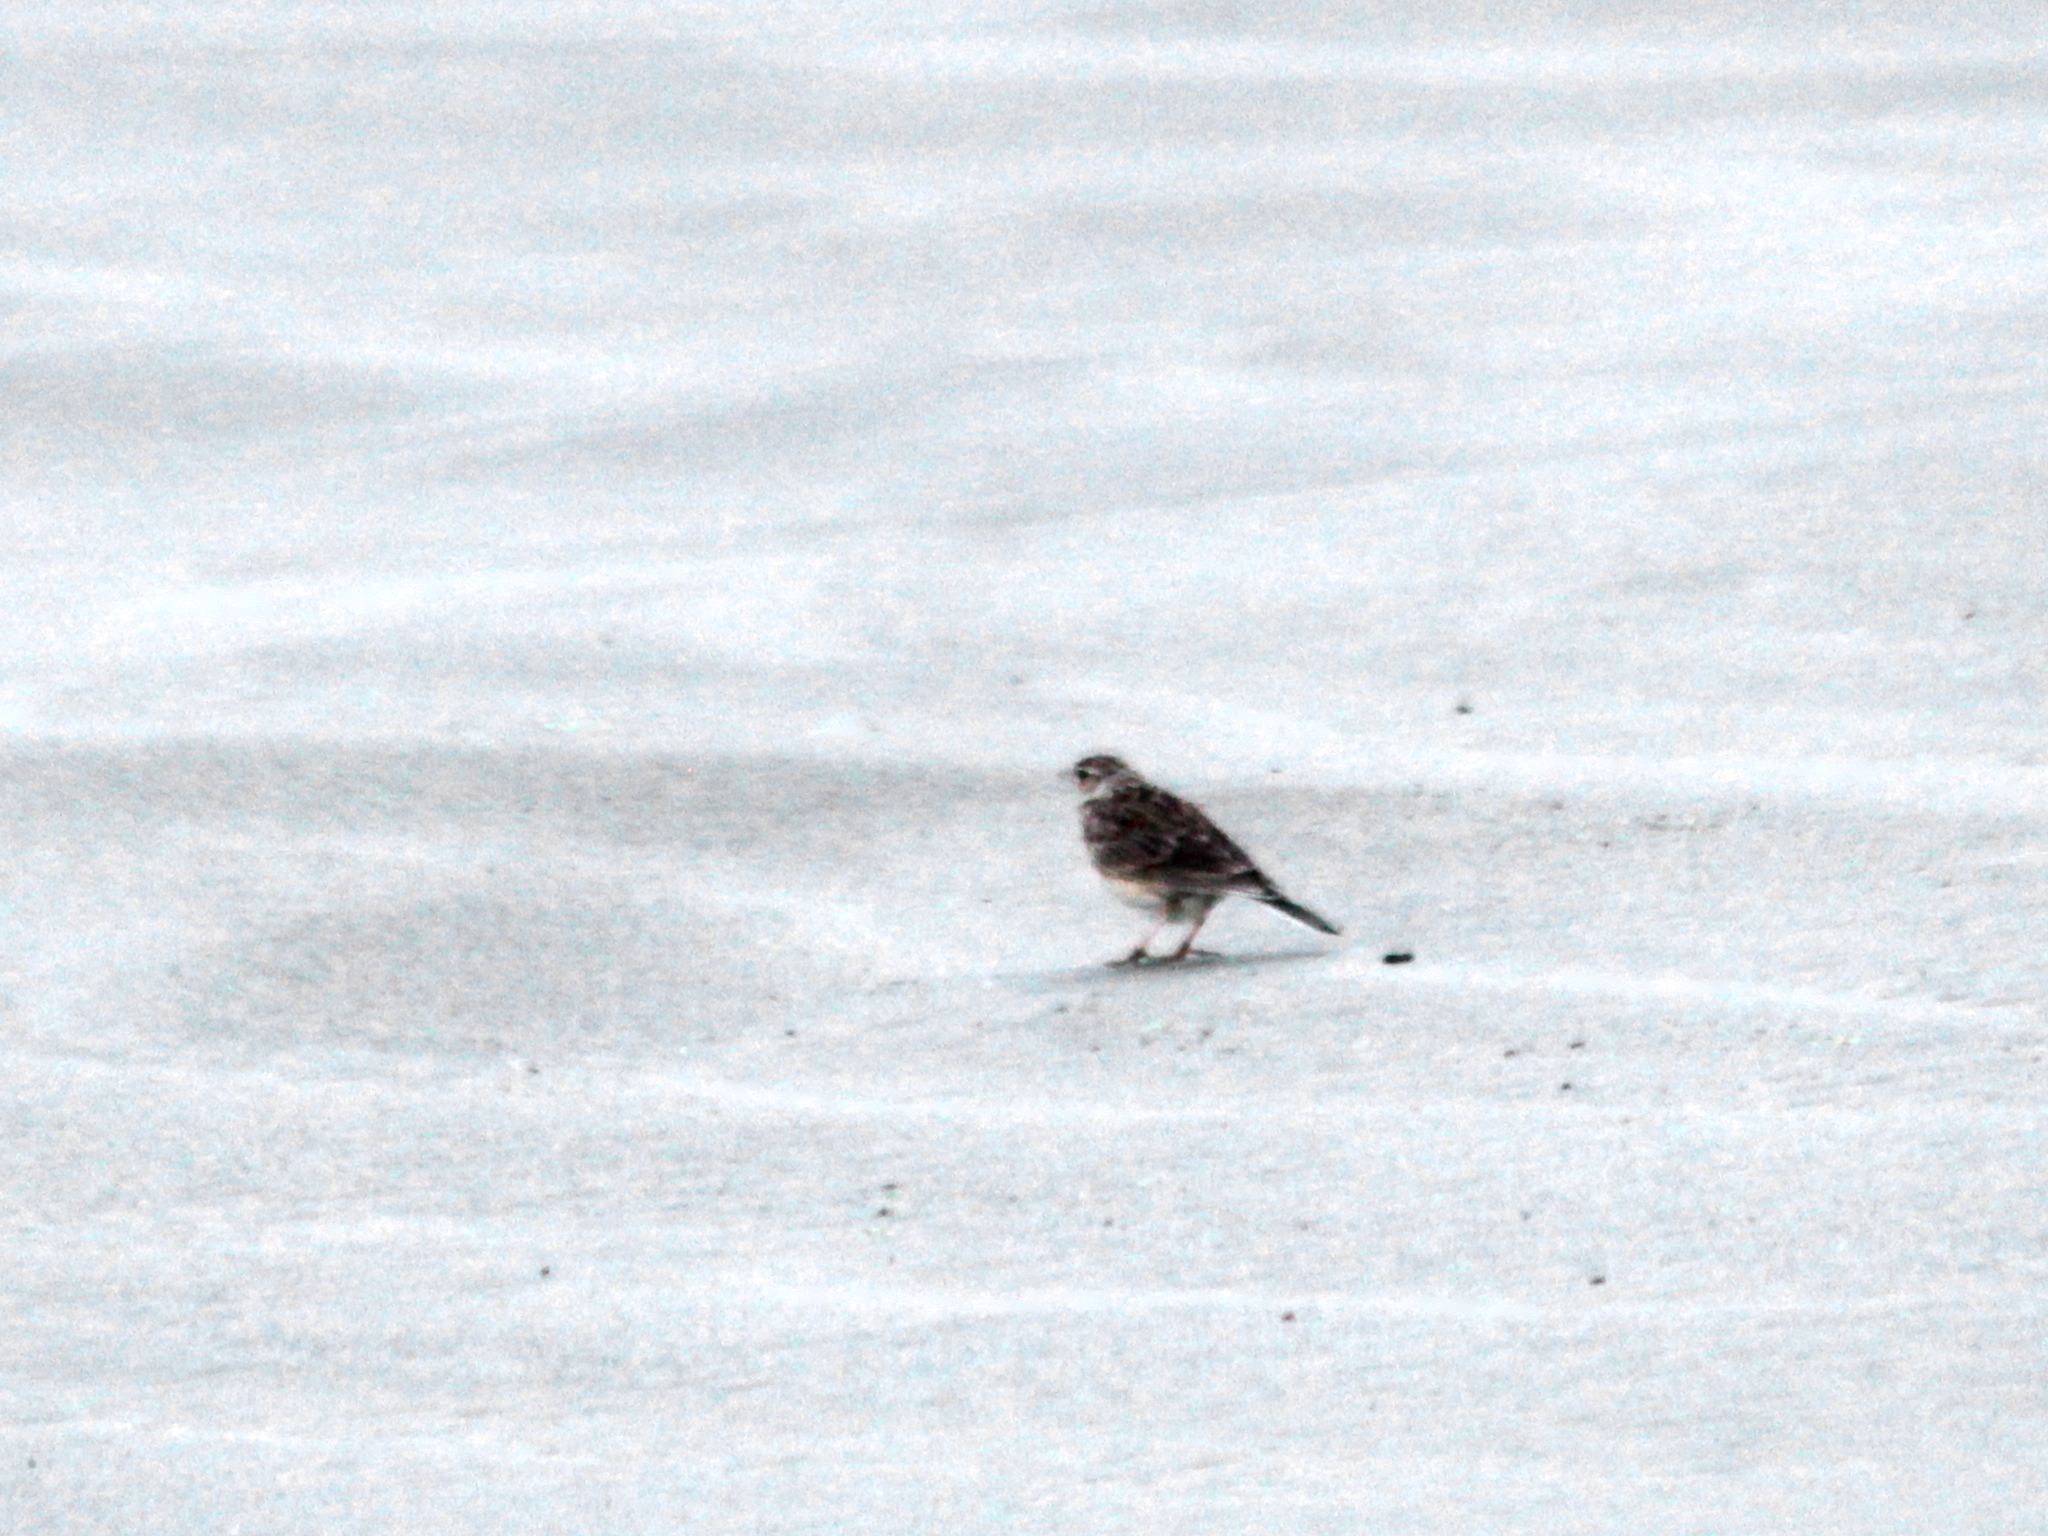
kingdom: Animalia
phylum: Chordata
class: Aves
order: Passeriformes
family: Motacillidae
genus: Anthus
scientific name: Anthus novaeseelandiae
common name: New zealand pipit
